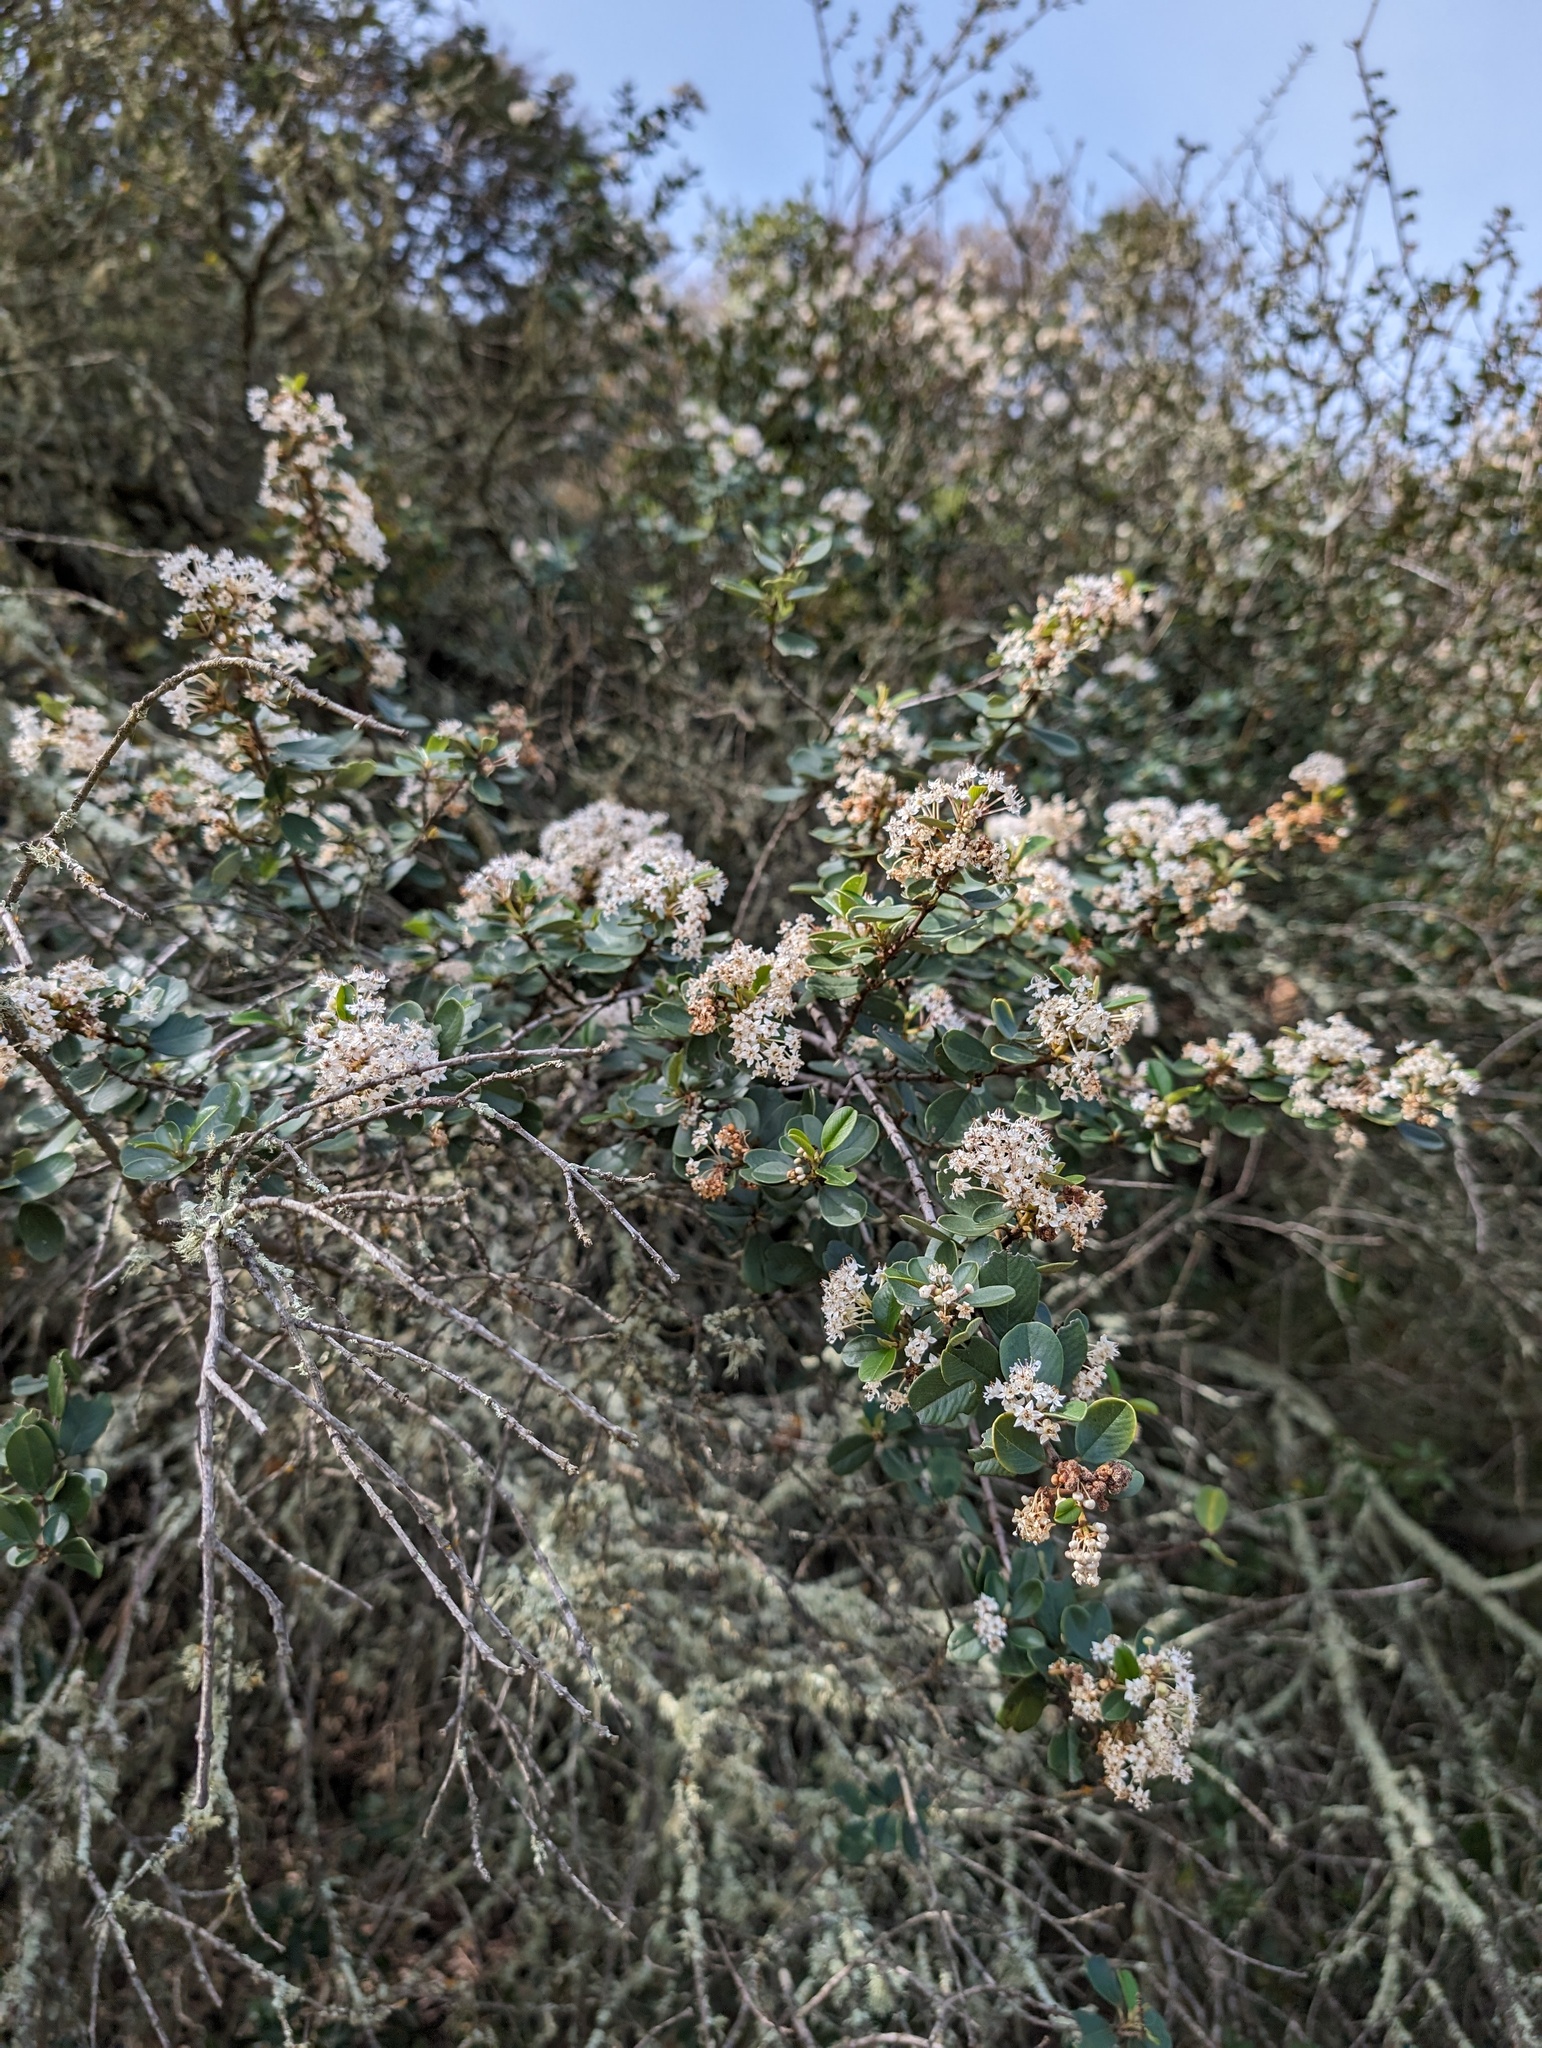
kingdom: Plantae
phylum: Tracheophyta
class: Magnoliopsida
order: Rosales
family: Rhamnaceae
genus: Ceanothus
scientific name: Ceanothus megacarpus
